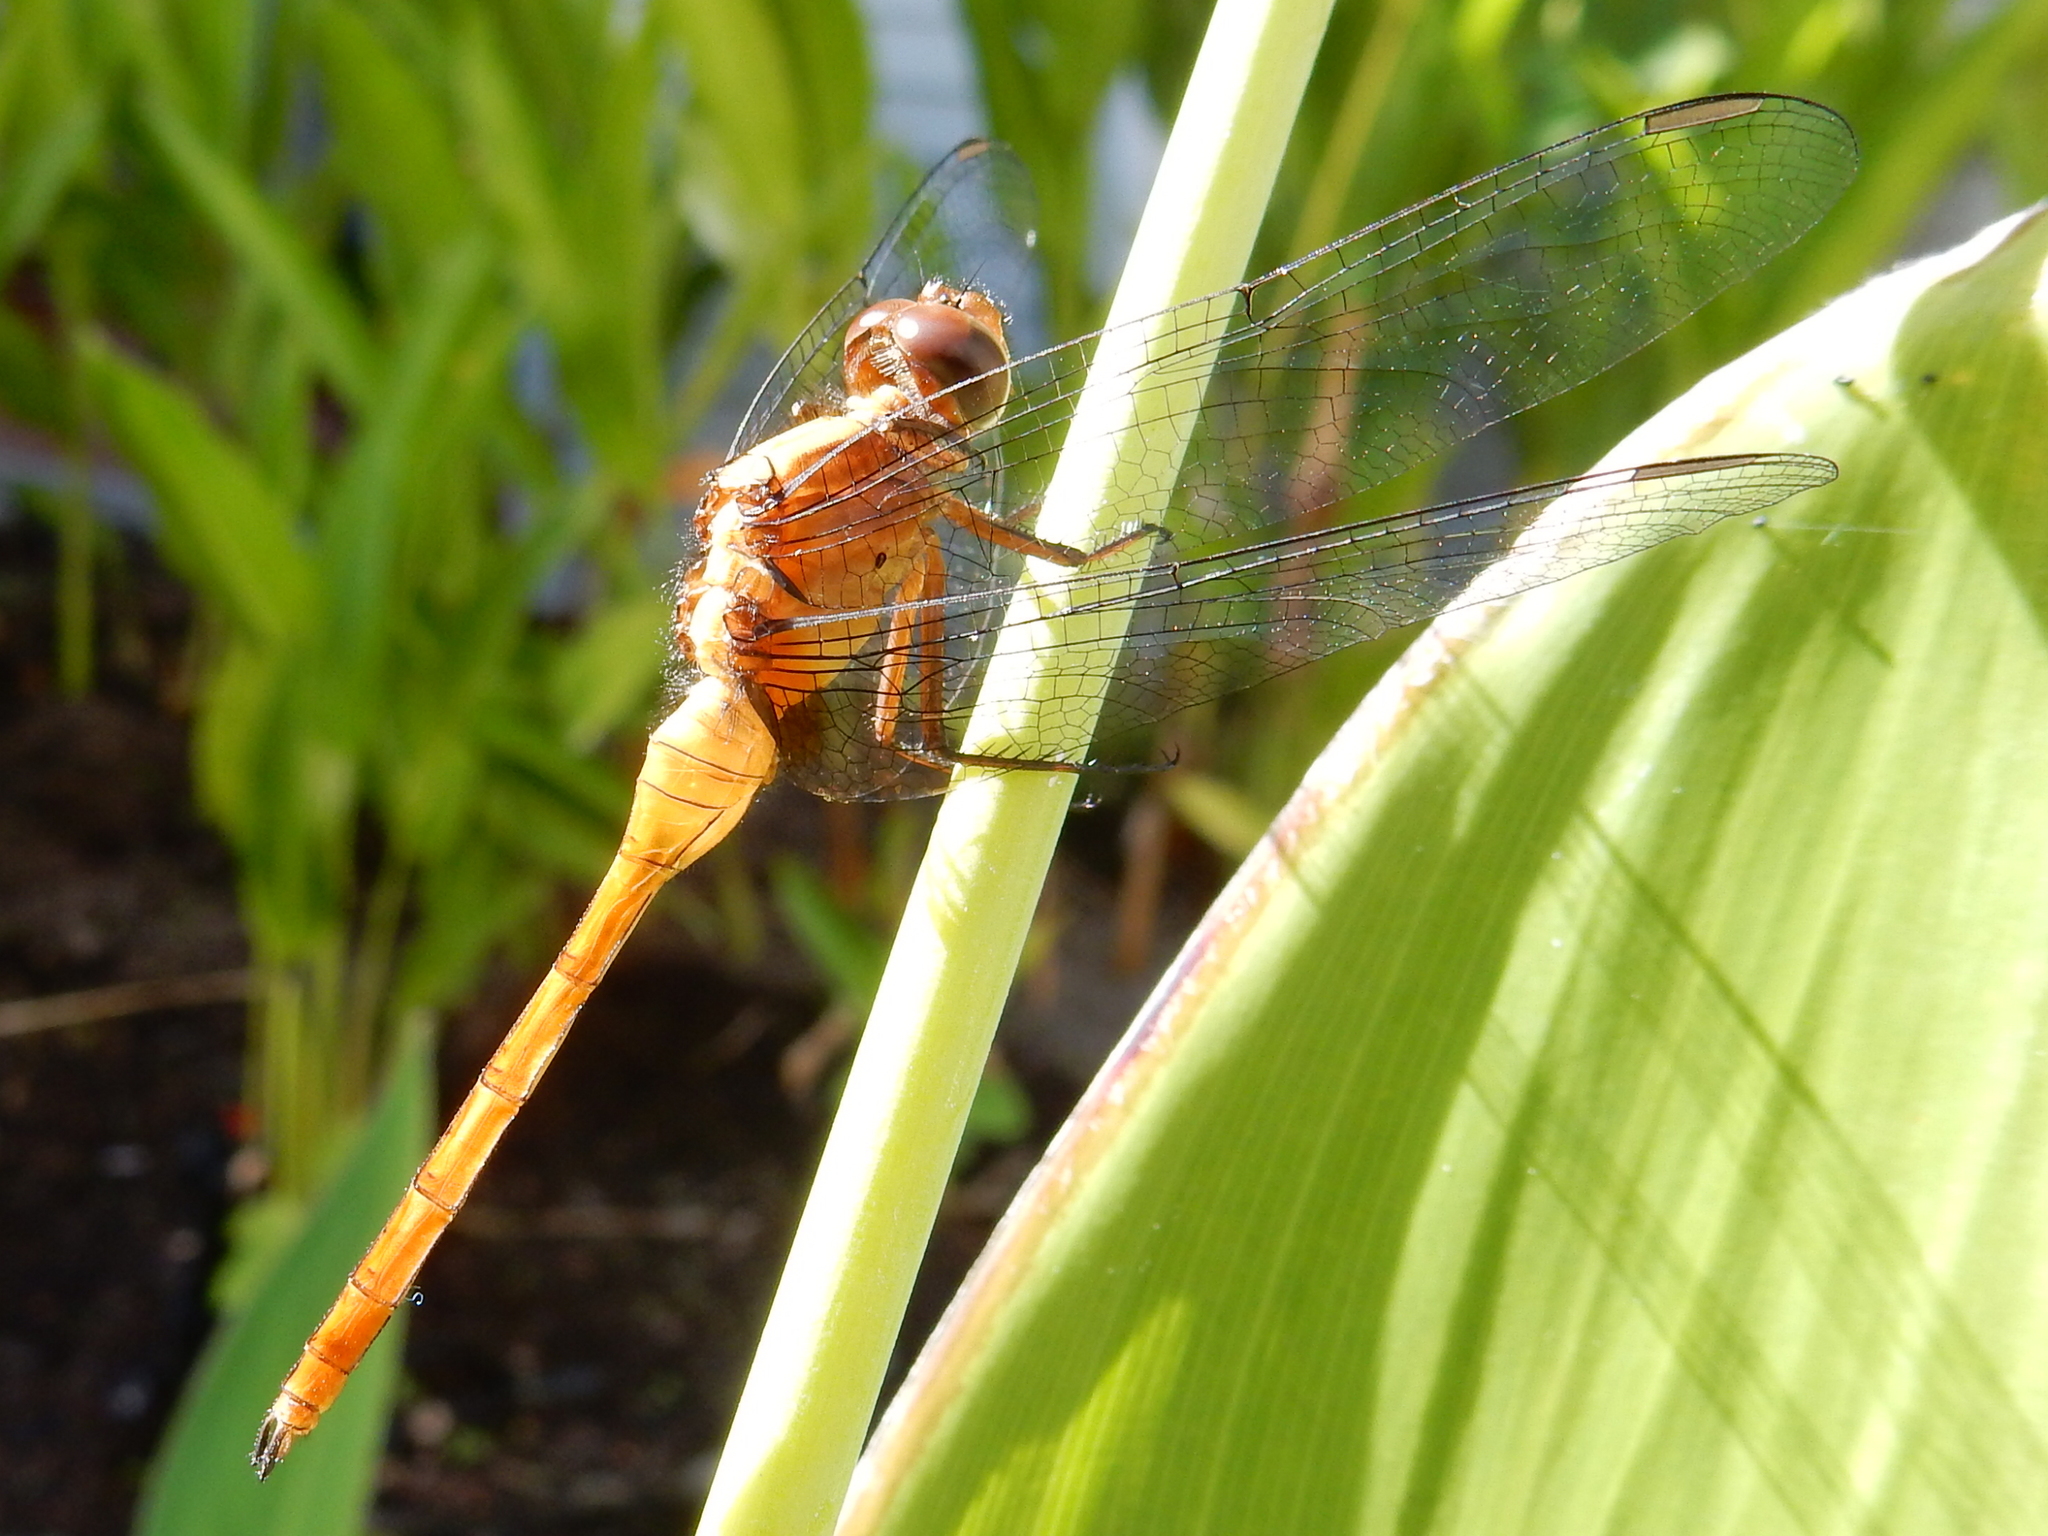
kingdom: Animalia
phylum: Arthropoda
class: Insecta
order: Odonata
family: Libellulidae
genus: Orthetrum
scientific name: Orthetrum villosovittatum
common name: Firery skimmer
